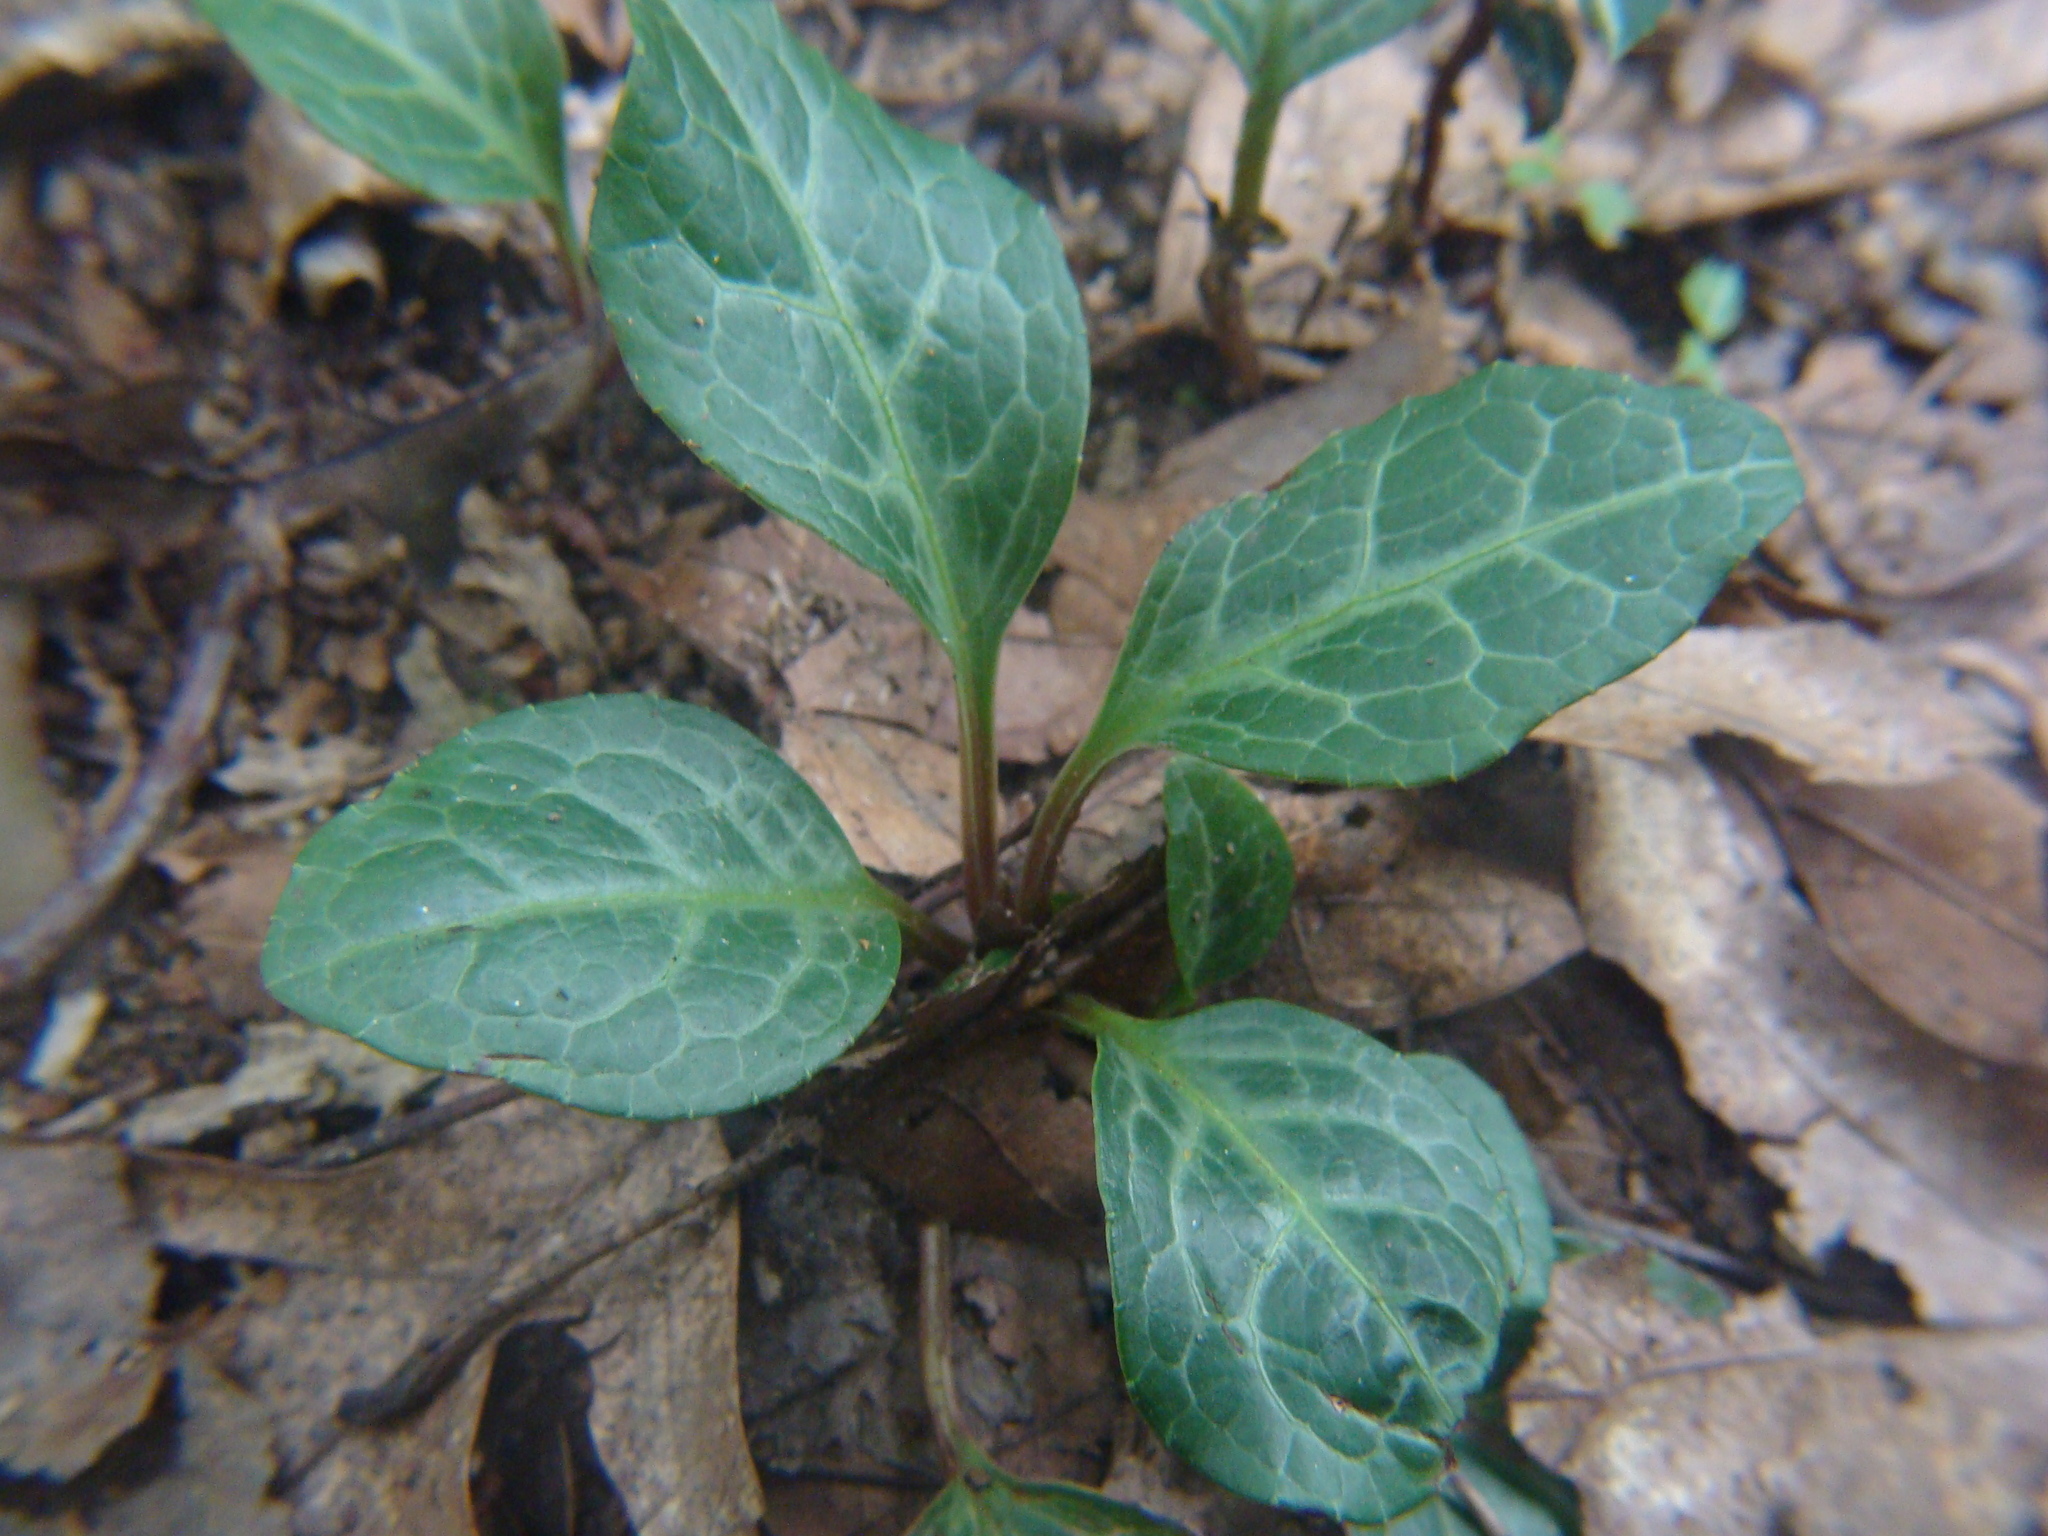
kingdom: Plantae
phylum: Tracheophyta
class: Magnoliopsida
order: Ericales
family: Ericaceae
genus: Pyrola
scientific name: Pyrola americana
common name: American wintergreen
